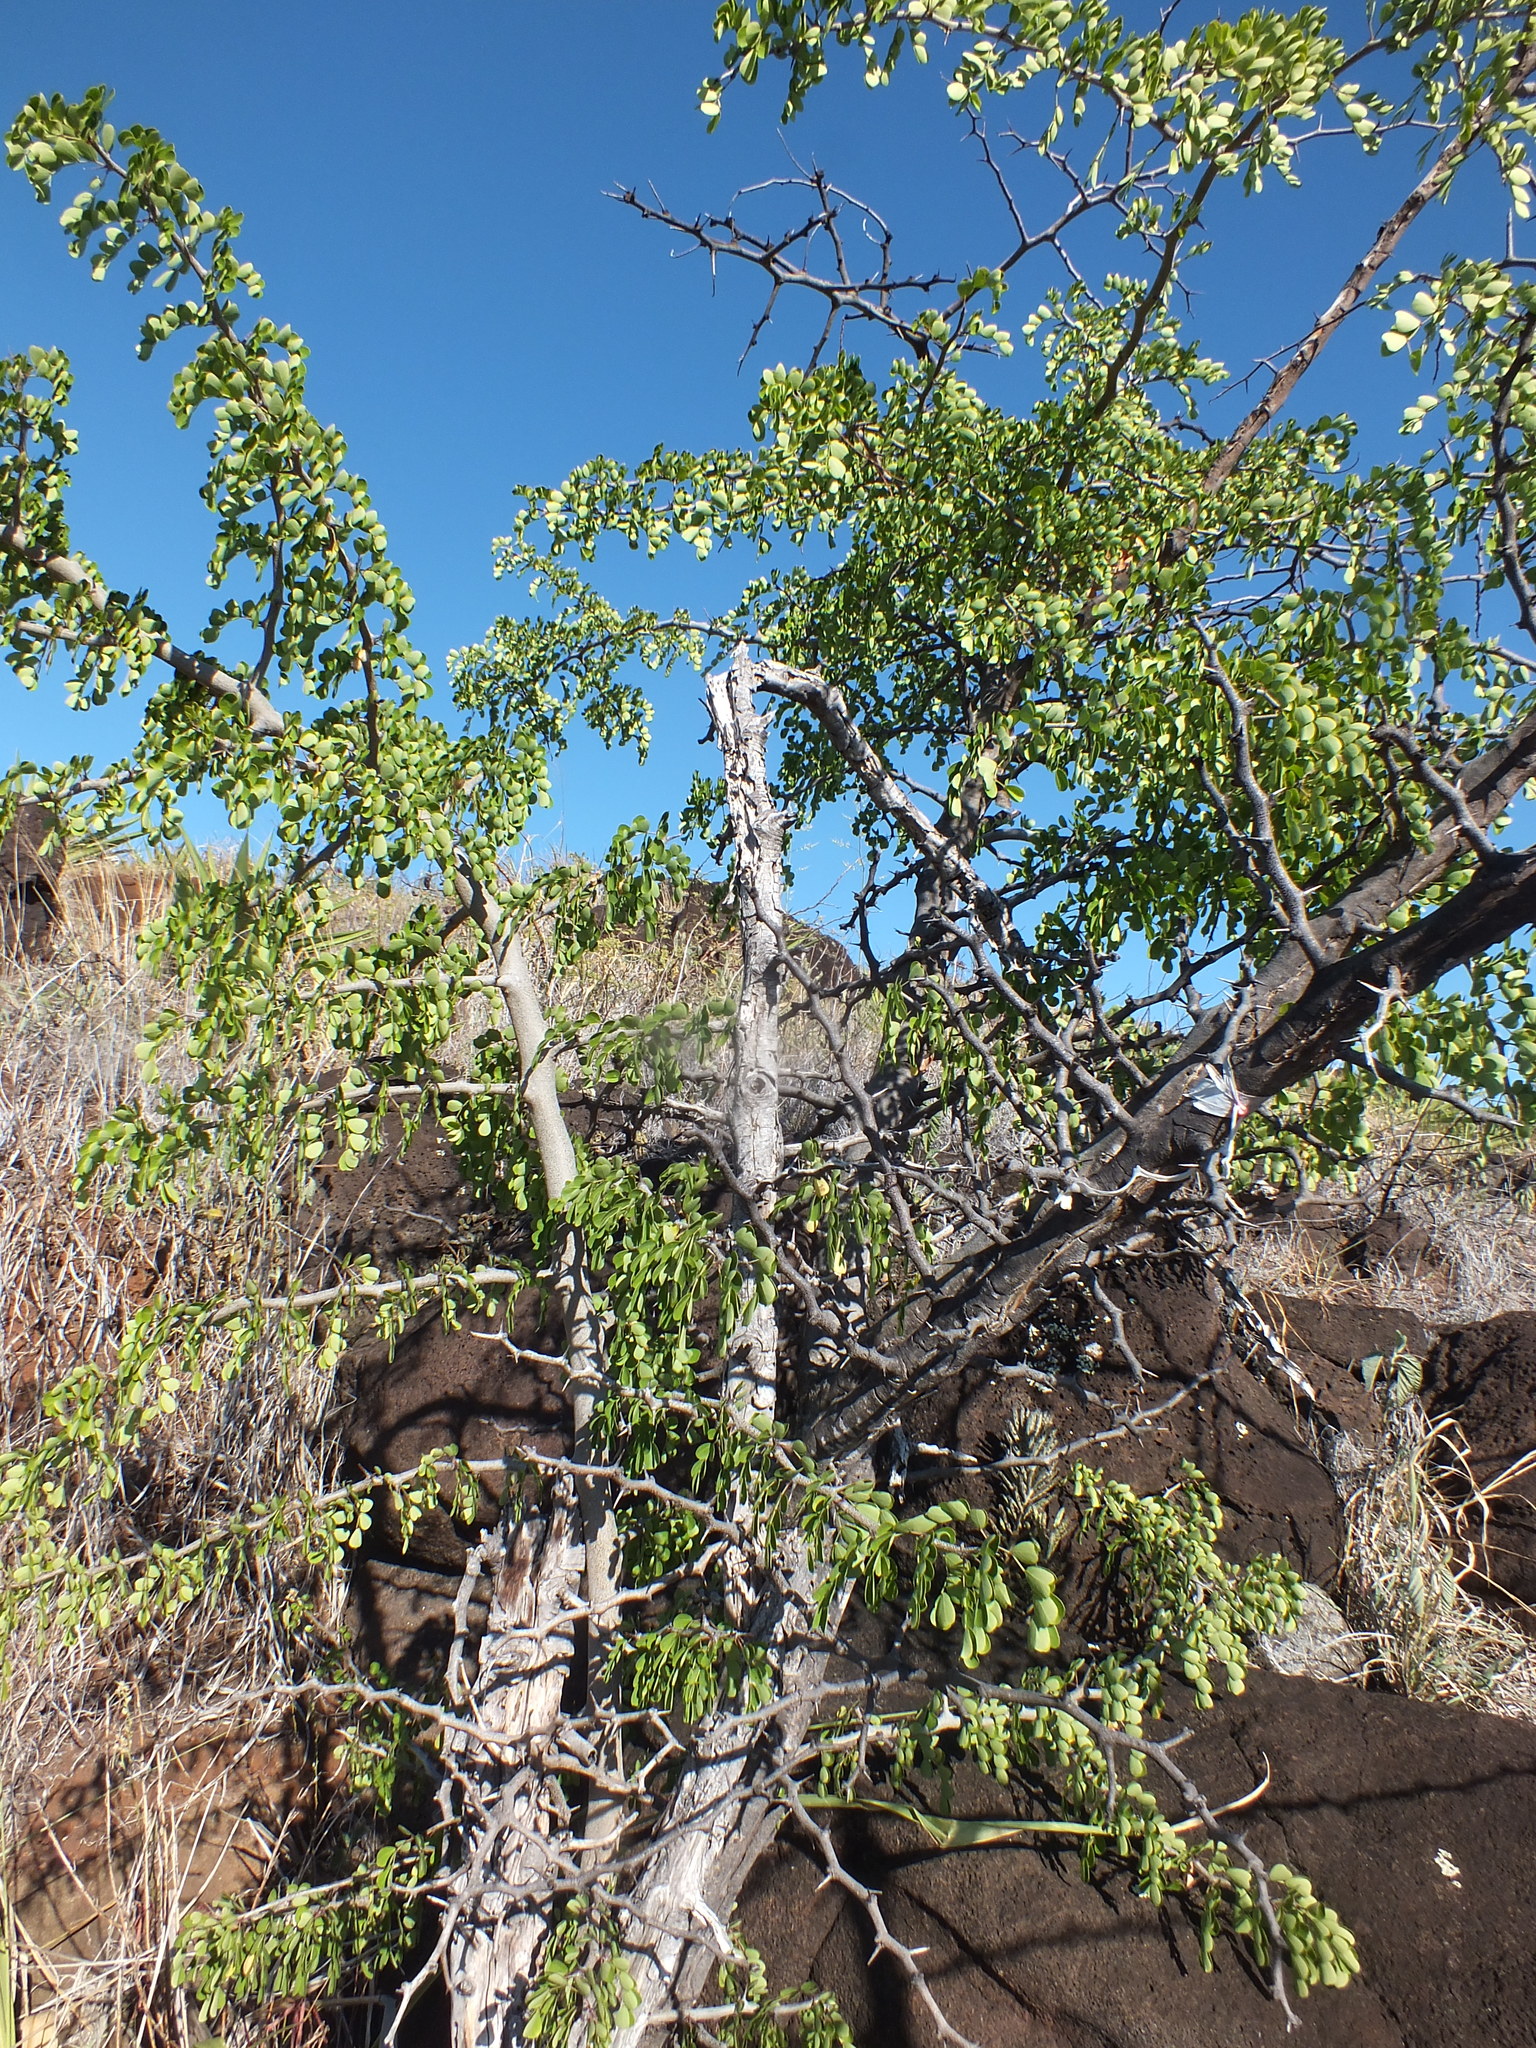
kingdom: Plantae
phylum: Tracheophyta
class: Magnoliopsida
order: Fabales
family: Fabaceae
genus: Haematoxylum
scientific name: Haematoxylum campechianum
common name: Logwood
